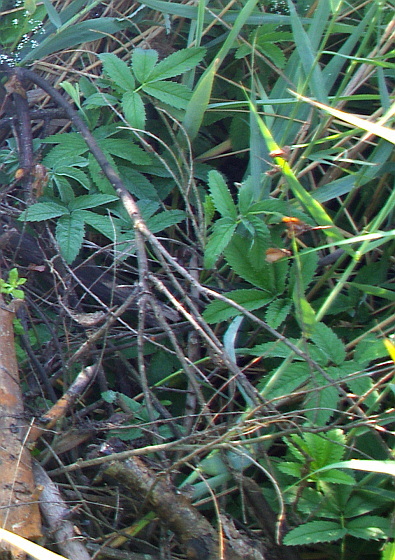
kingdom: Plantae
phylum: Tracheophyta
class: Magnoliopsida
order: Rosales
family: Rosaceae
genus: Comarum
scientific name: Comarum palustre
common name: Marsh cinquefoil
